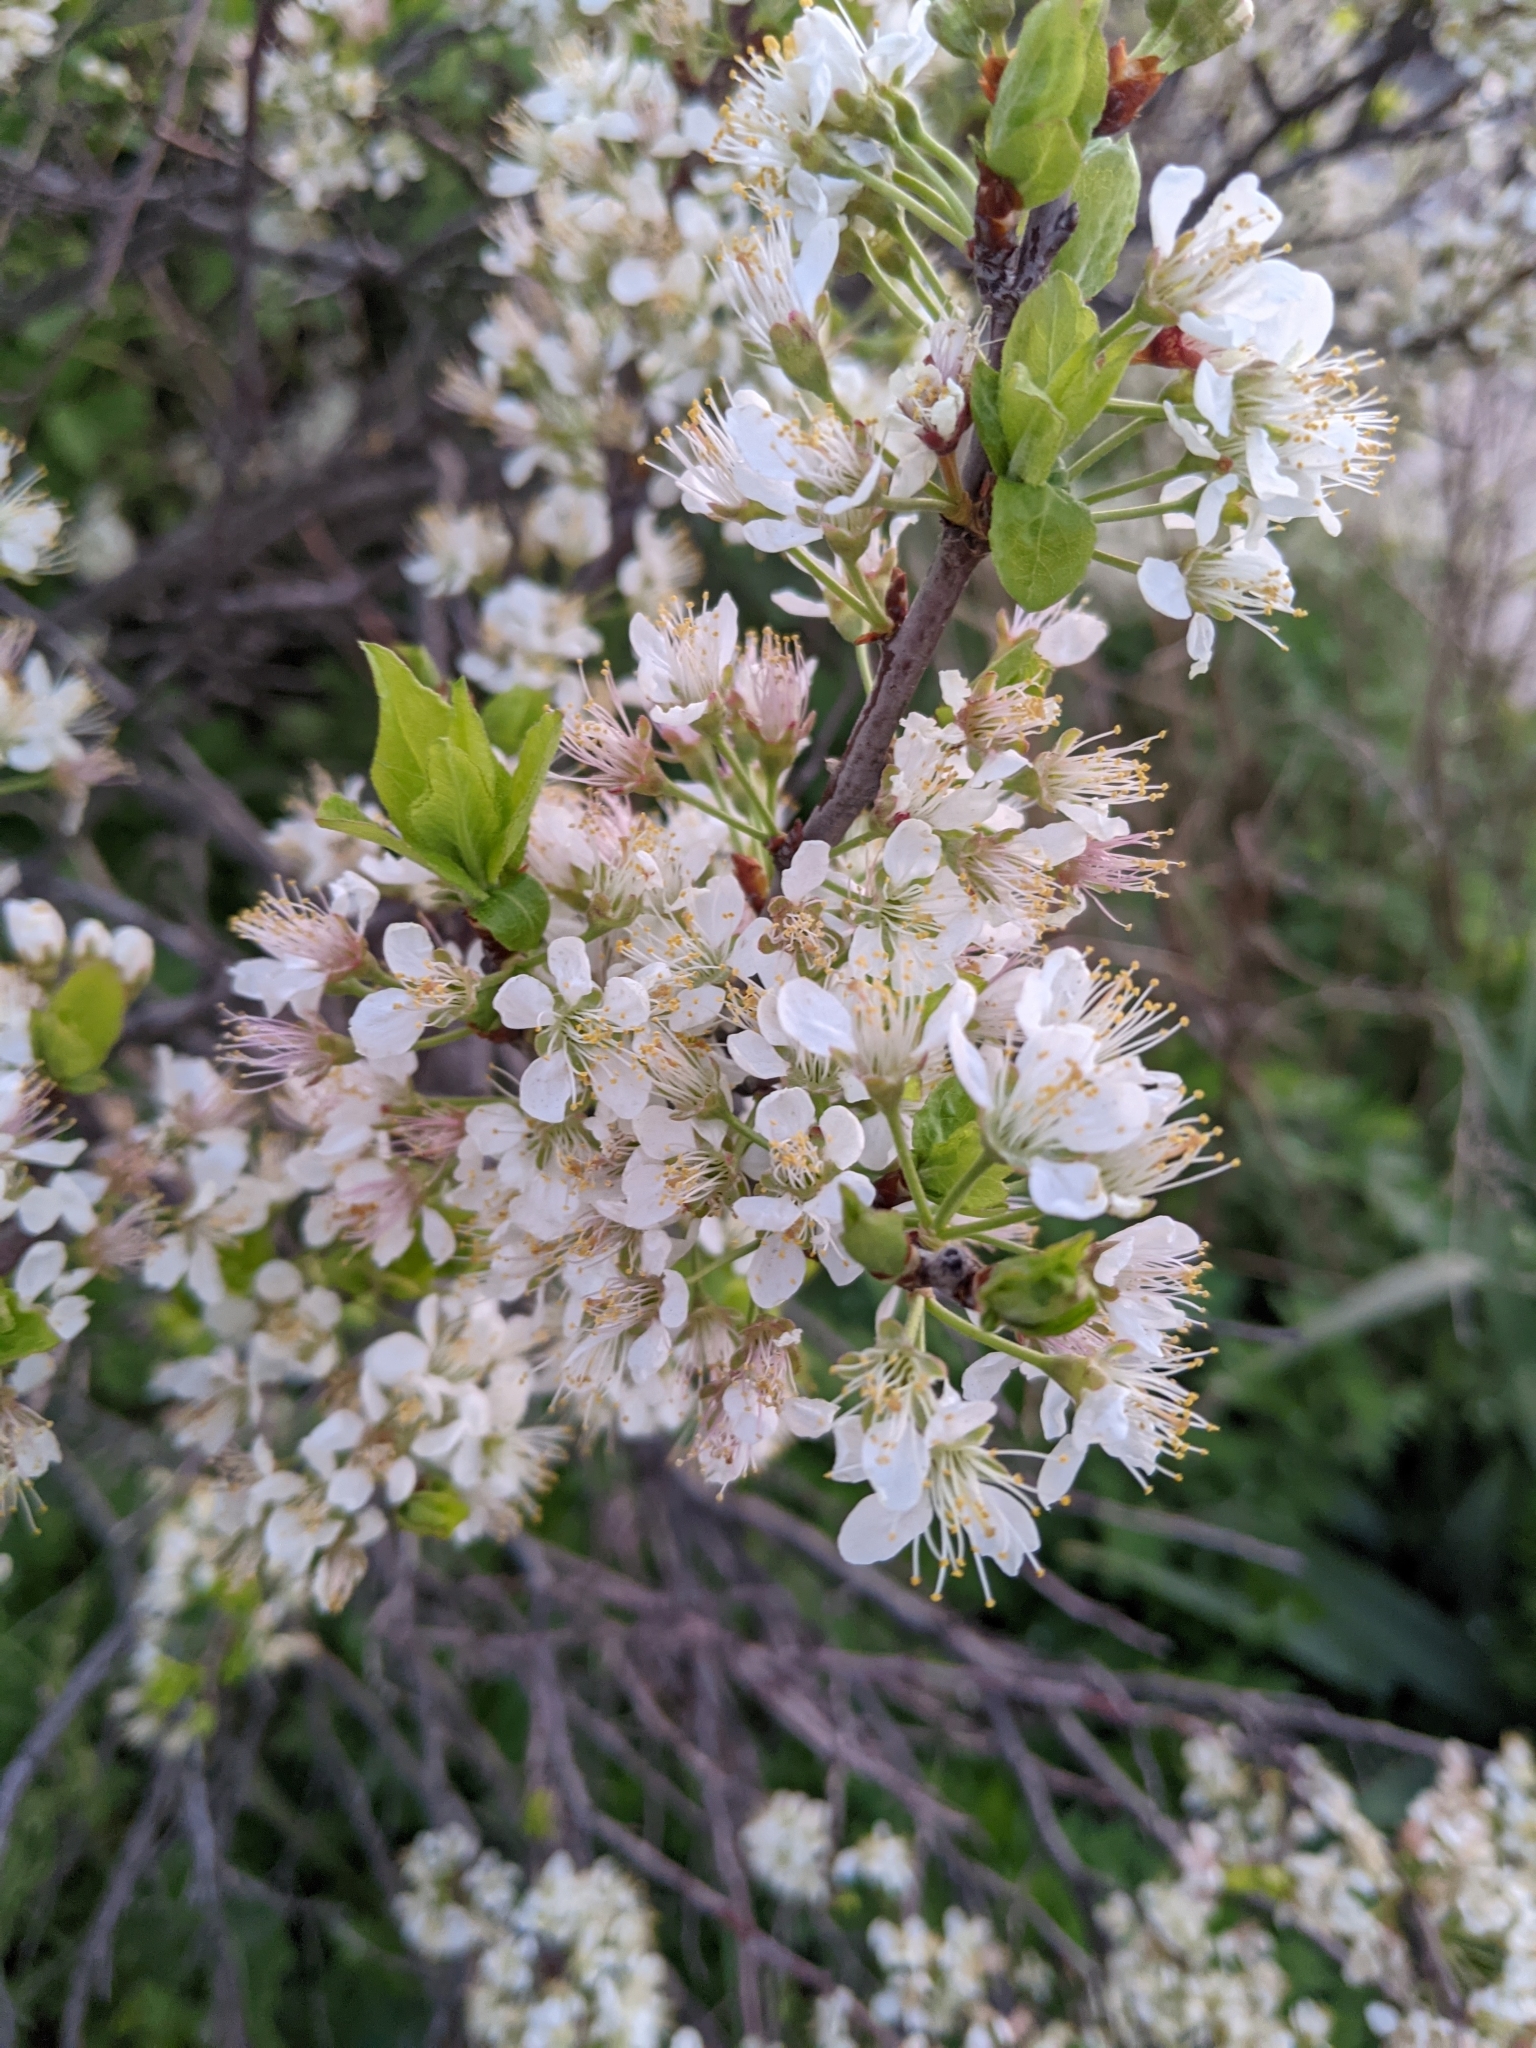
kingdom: Plantae
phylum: Tracheophyta
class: Magnoliopsida
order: Rosales
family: Rosaceae
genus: Prunus
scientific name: Prunus maritima
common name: Beach plum
